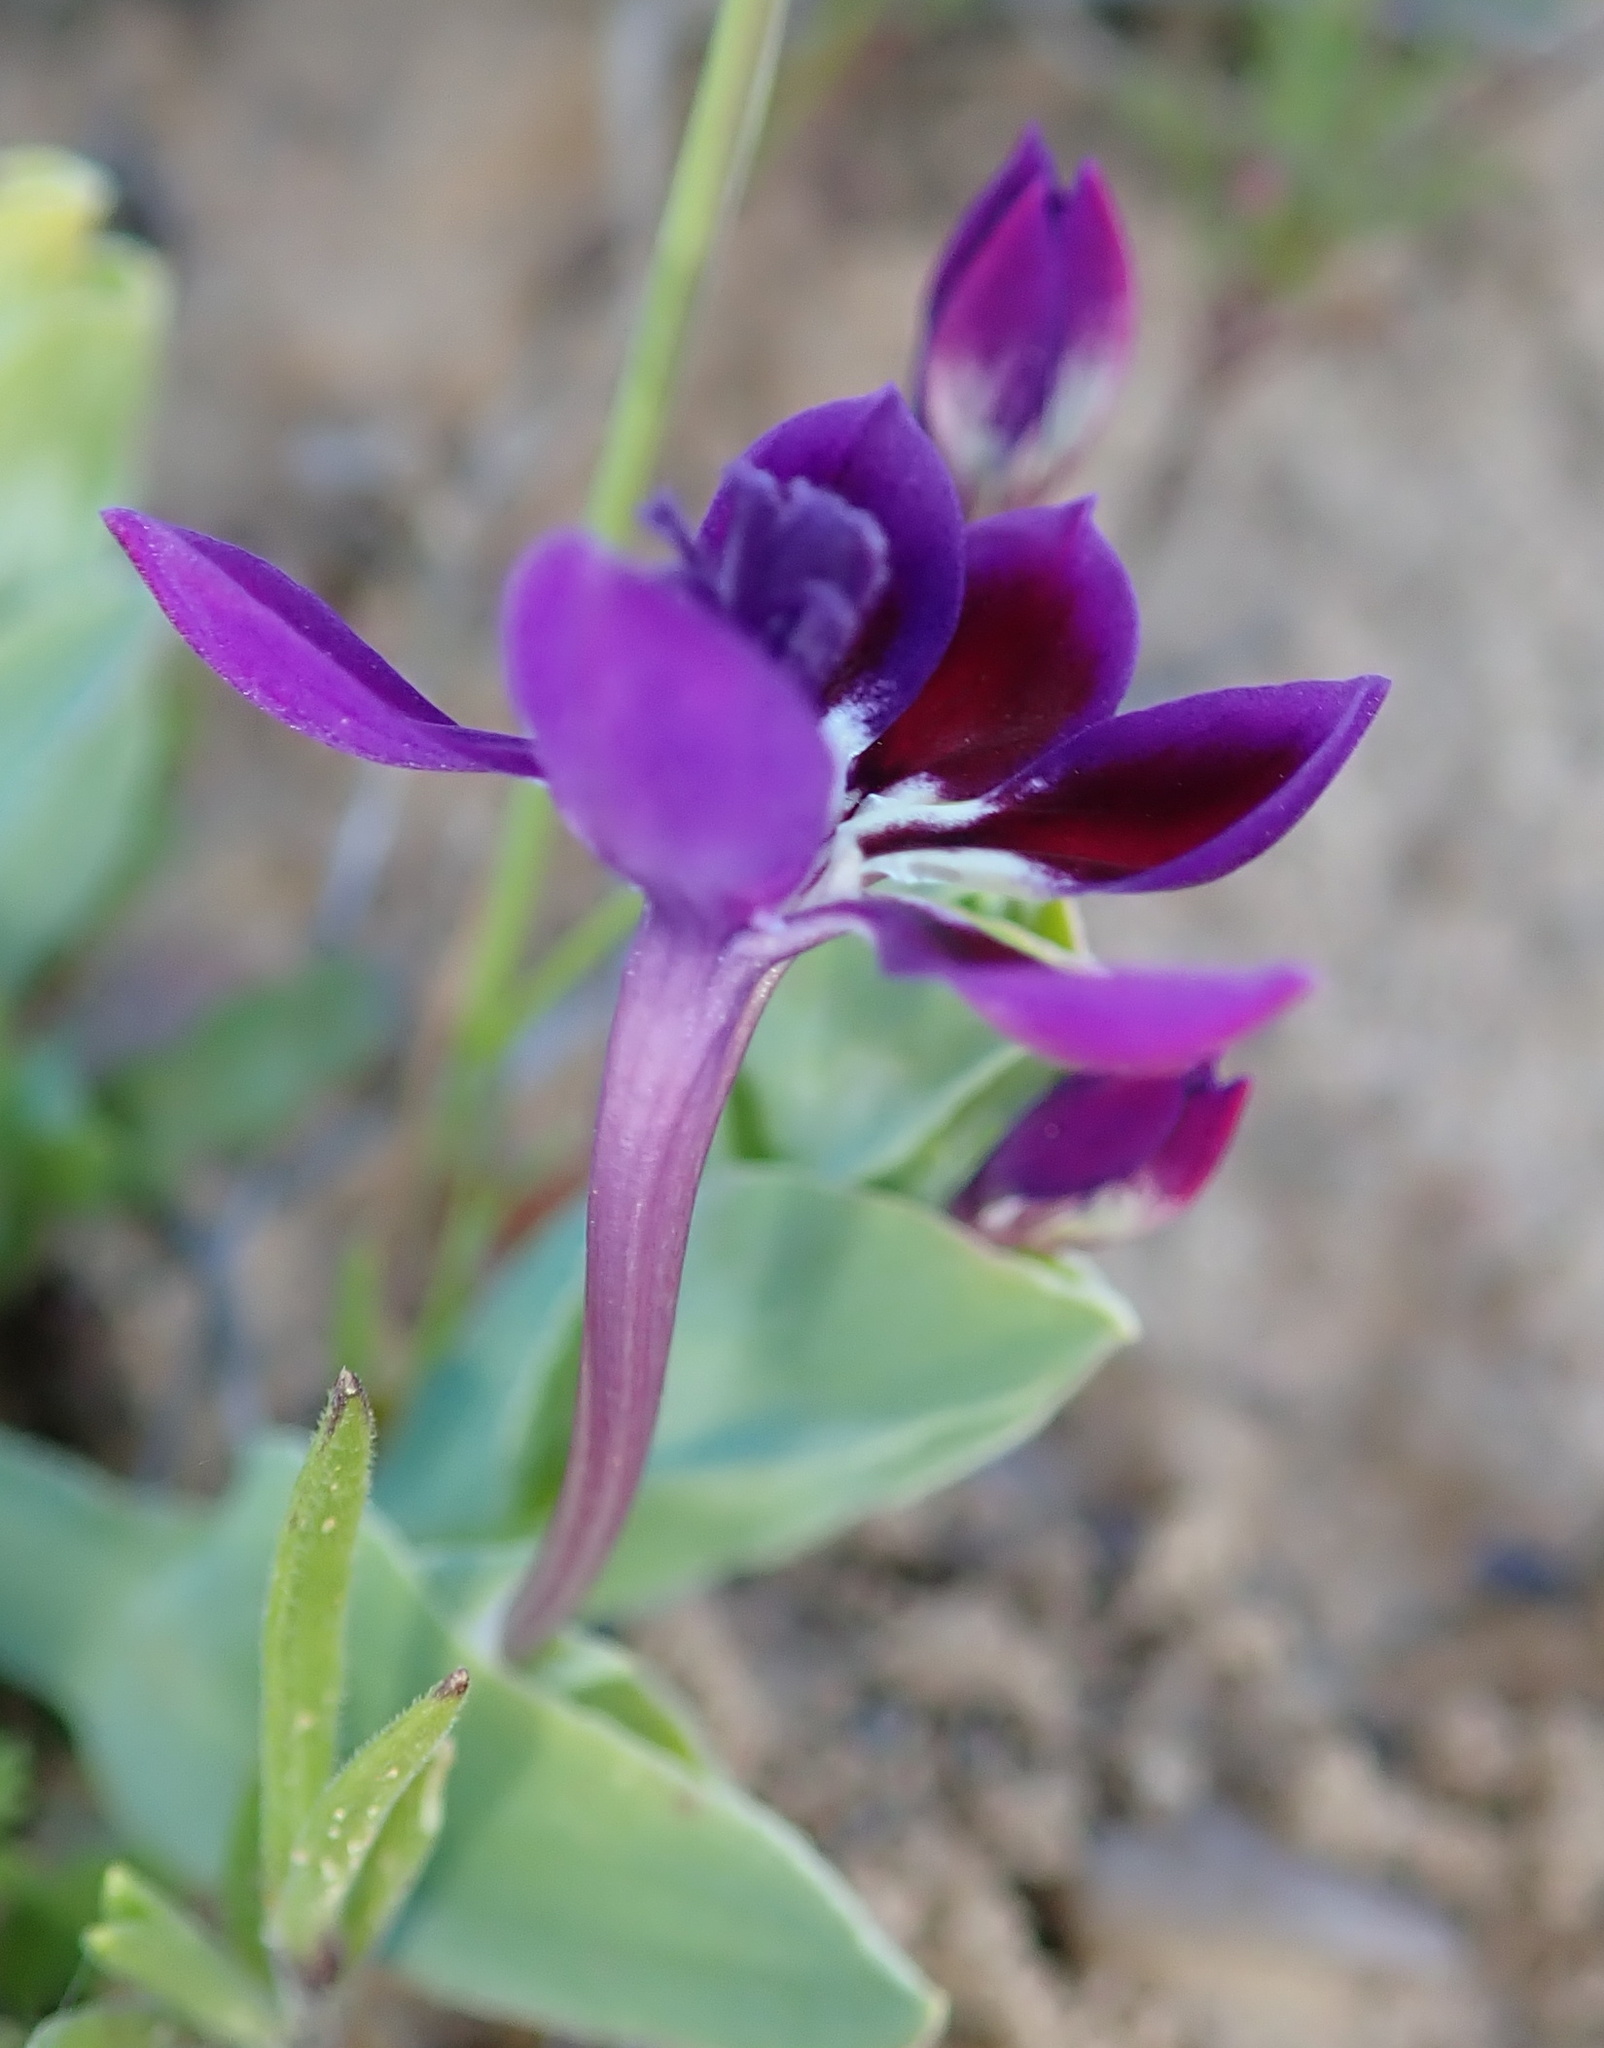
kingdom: Plantae
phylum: Tracheophyta
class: Liliopsida
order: Asparagales
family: Iridaceae
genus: Lapeirousia
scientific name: Lapeirousia jacquinii
